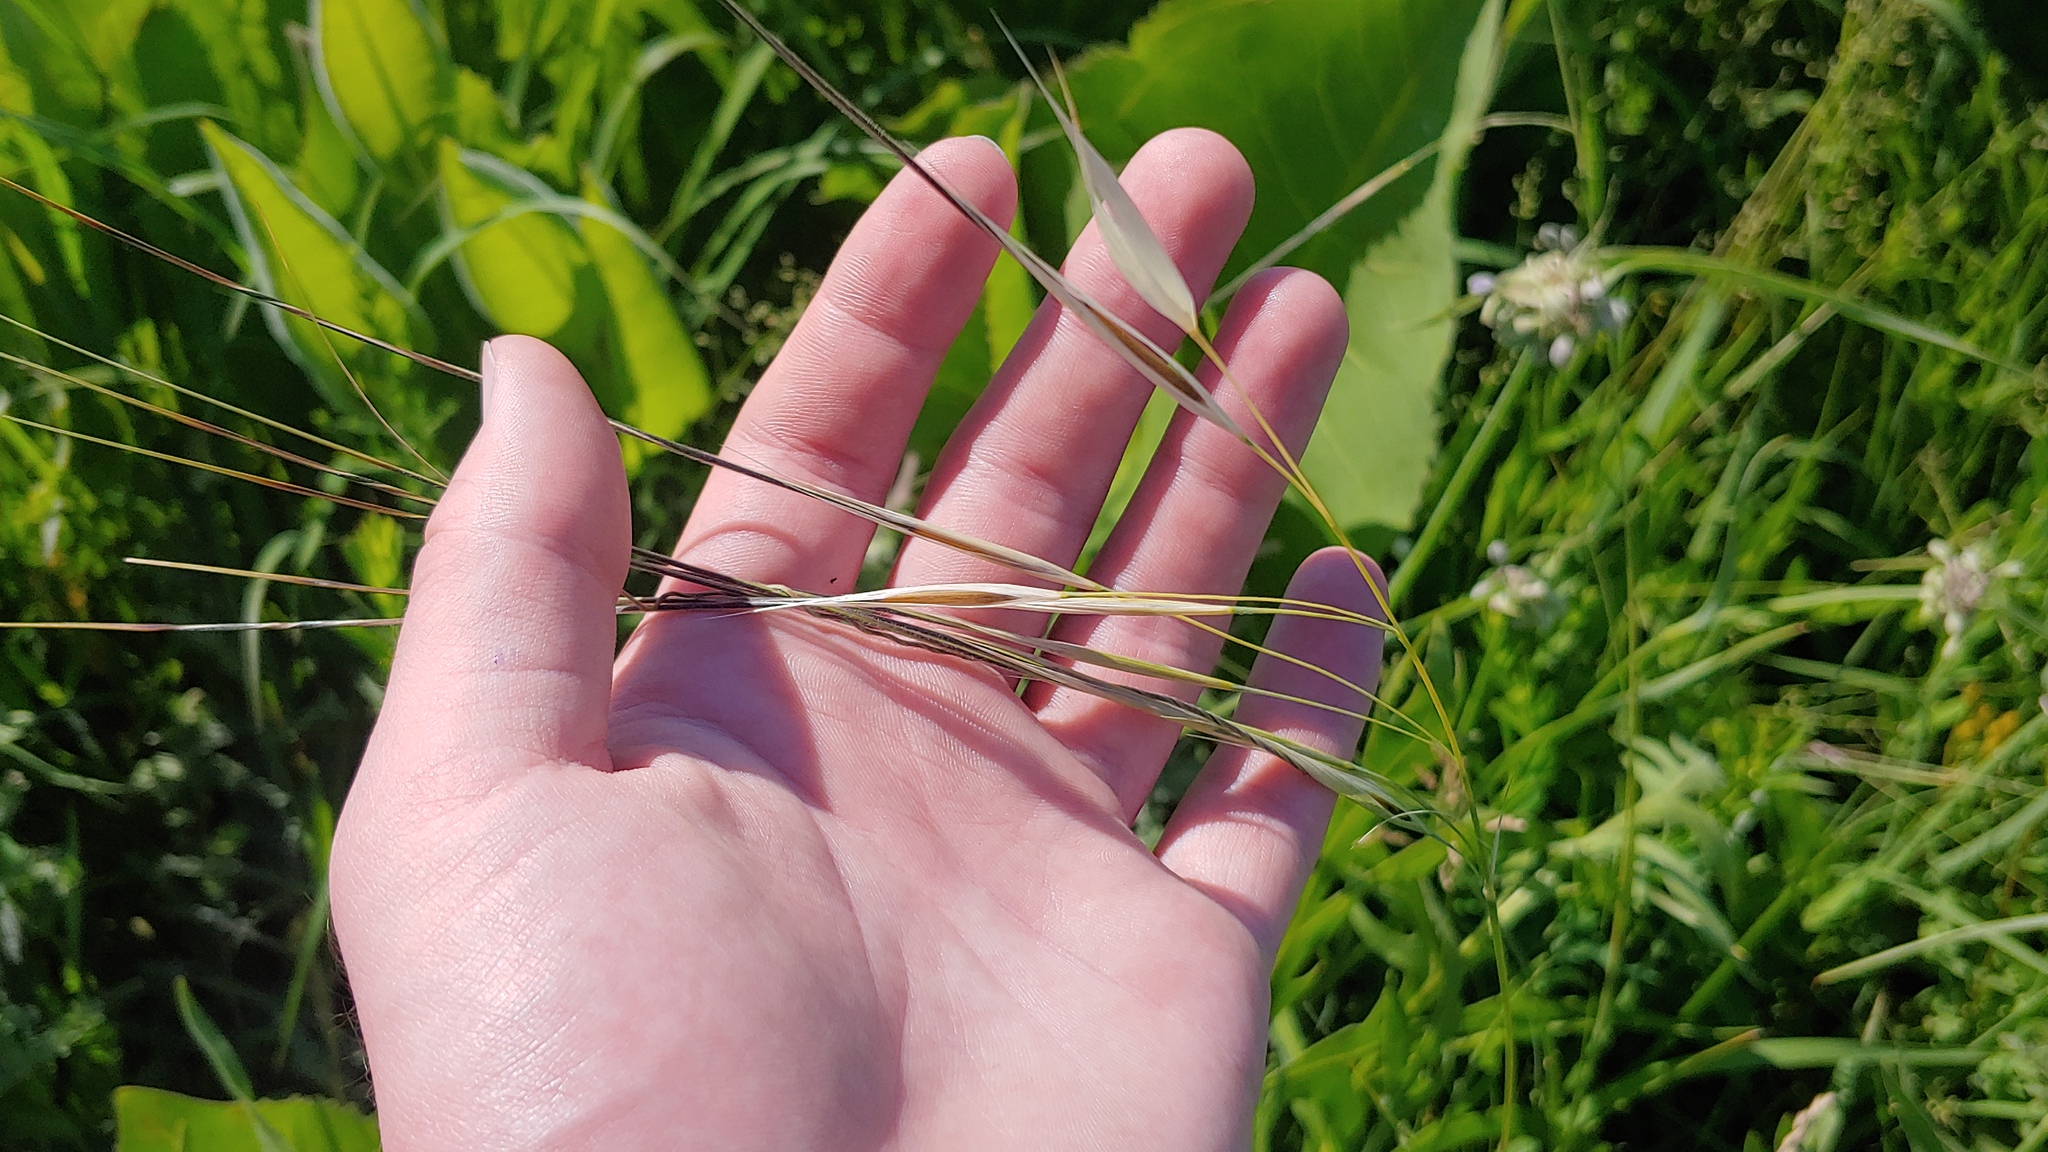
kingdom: Plantae
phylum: Tracheophyta
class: Liliopsida
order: Poales
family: Poaceae
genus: Hesperostipa
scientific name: Hesperostipa spartea
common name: Porcupine grass
